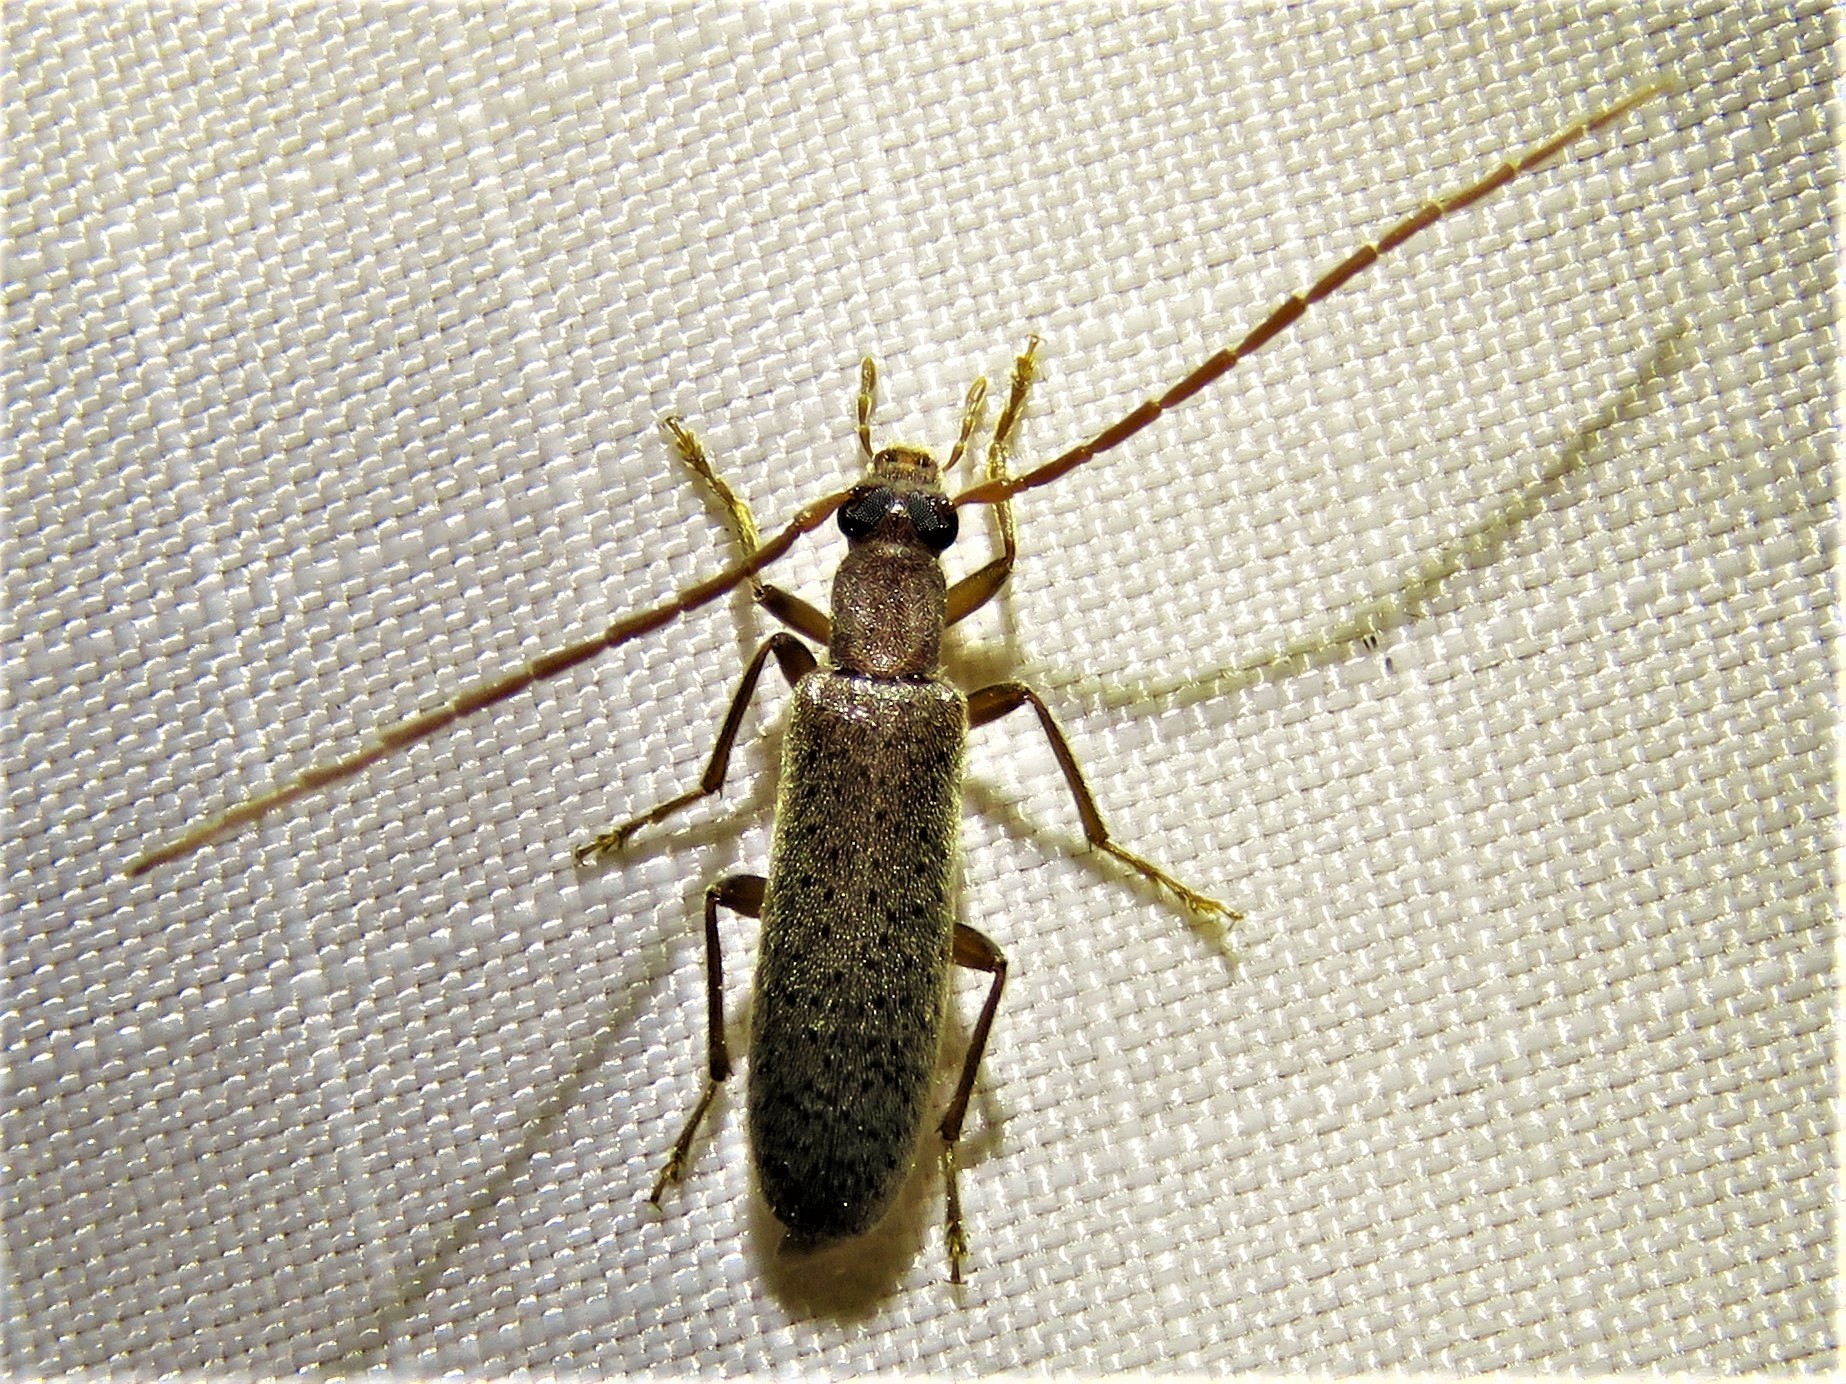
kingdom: Animalia
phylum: Arthropoda
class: Insecta
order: Coleoptera
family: Oedemeridae
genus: Sparedrus
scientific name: Sparedrus aspersus
